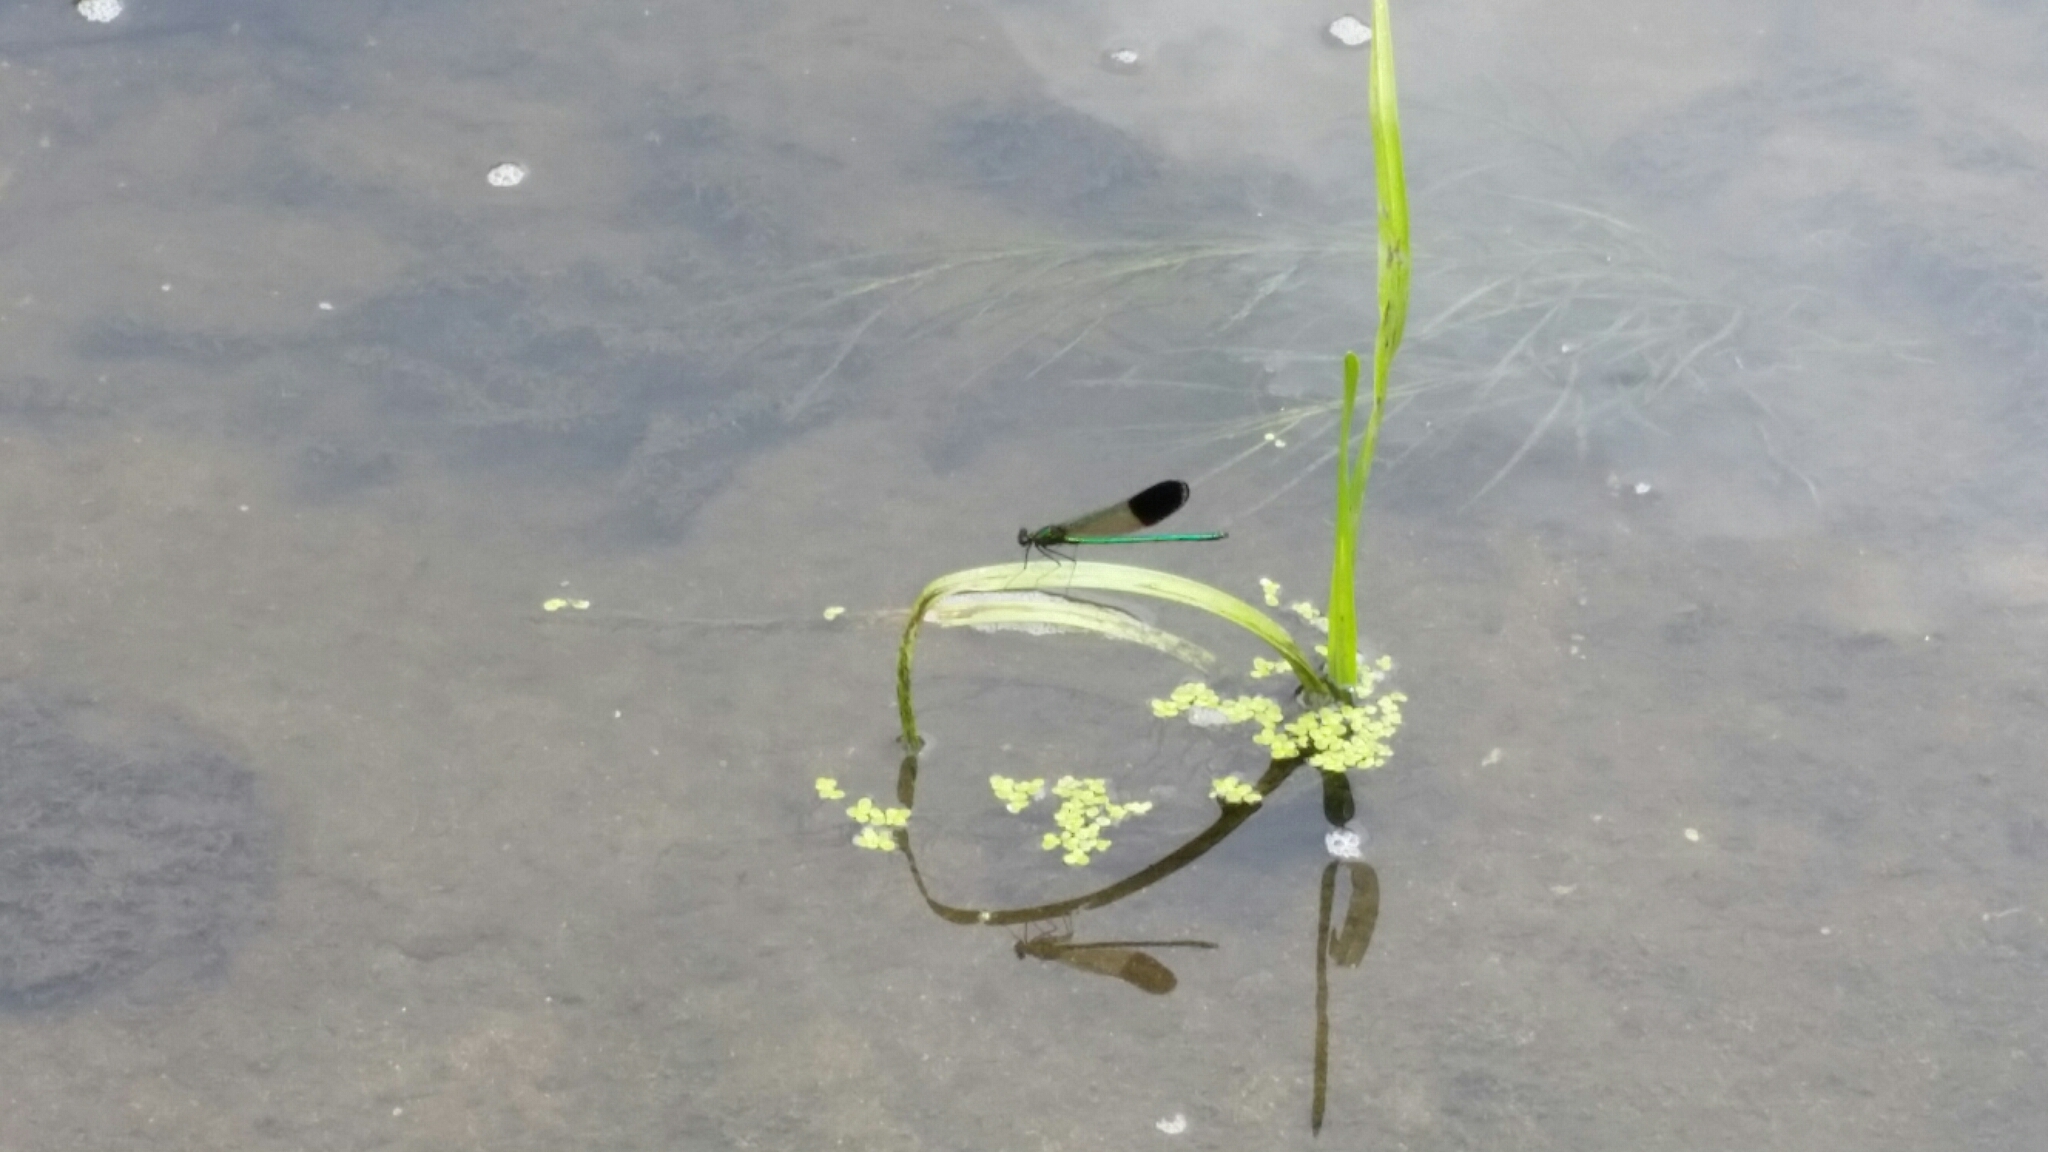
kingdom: Animalia
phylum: Arthropoda
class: Insecta
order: Odonata
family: Calopterygidae
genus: Calopteryx
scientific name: Calopteryx aequabilis
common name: River jewelwing
